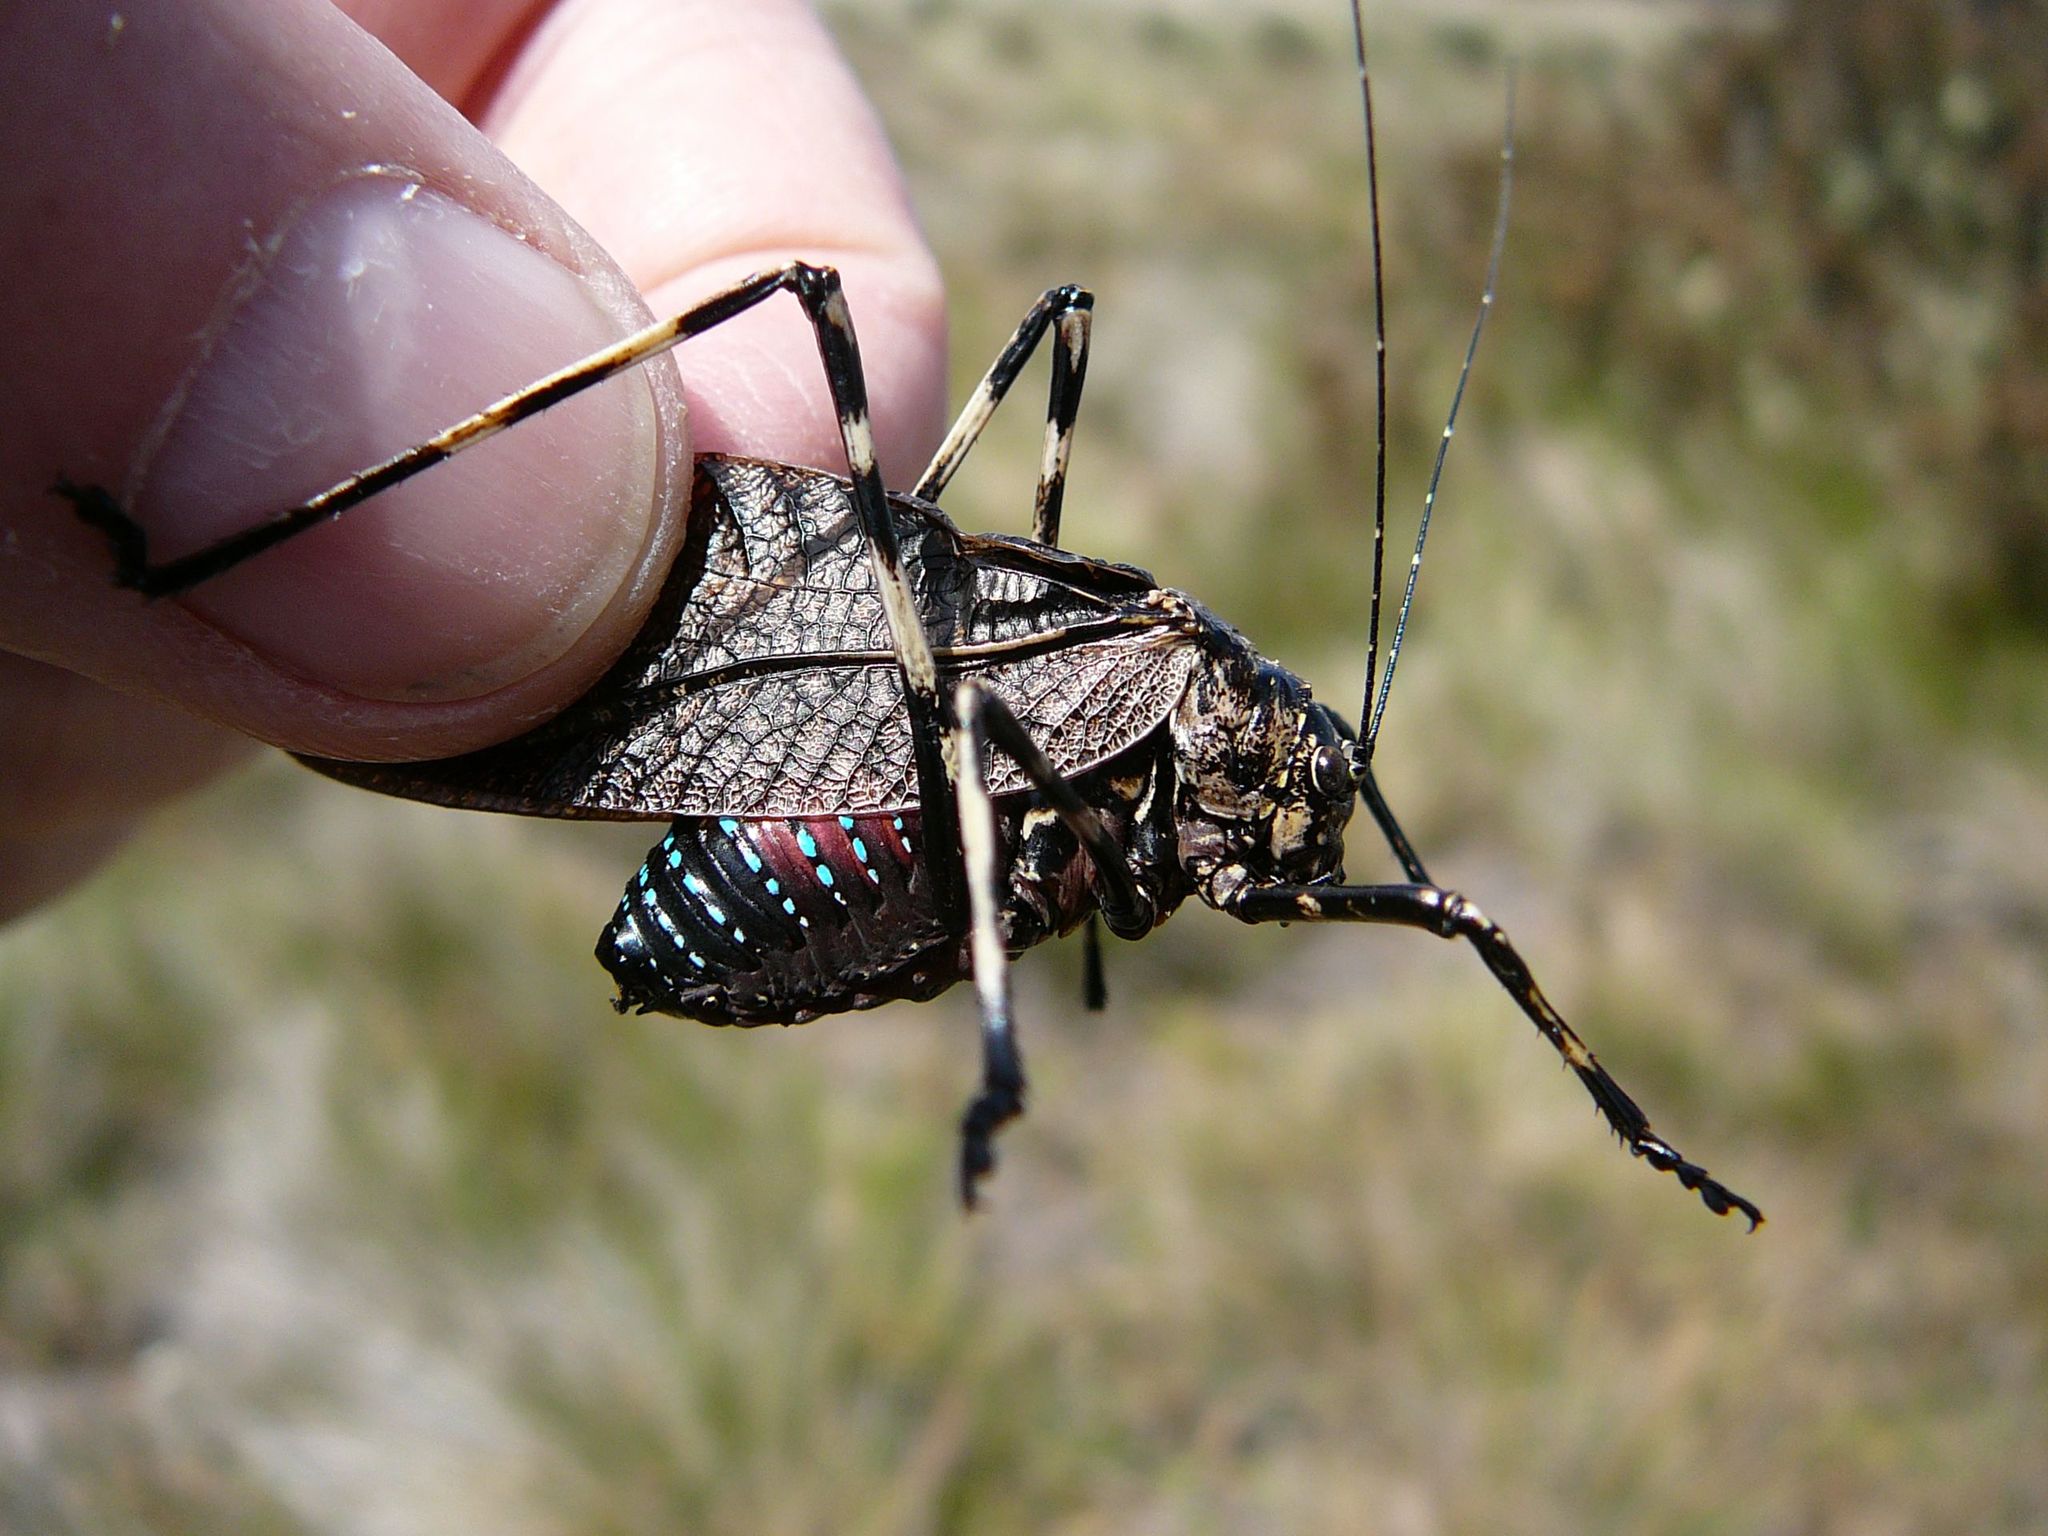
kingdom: Animalia
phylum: Arthropoda
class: Insecta
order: Orthoptera
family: Tettigoniidae
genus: Acripeza
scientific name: Acripeza reticulata
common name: Mountain katydid
